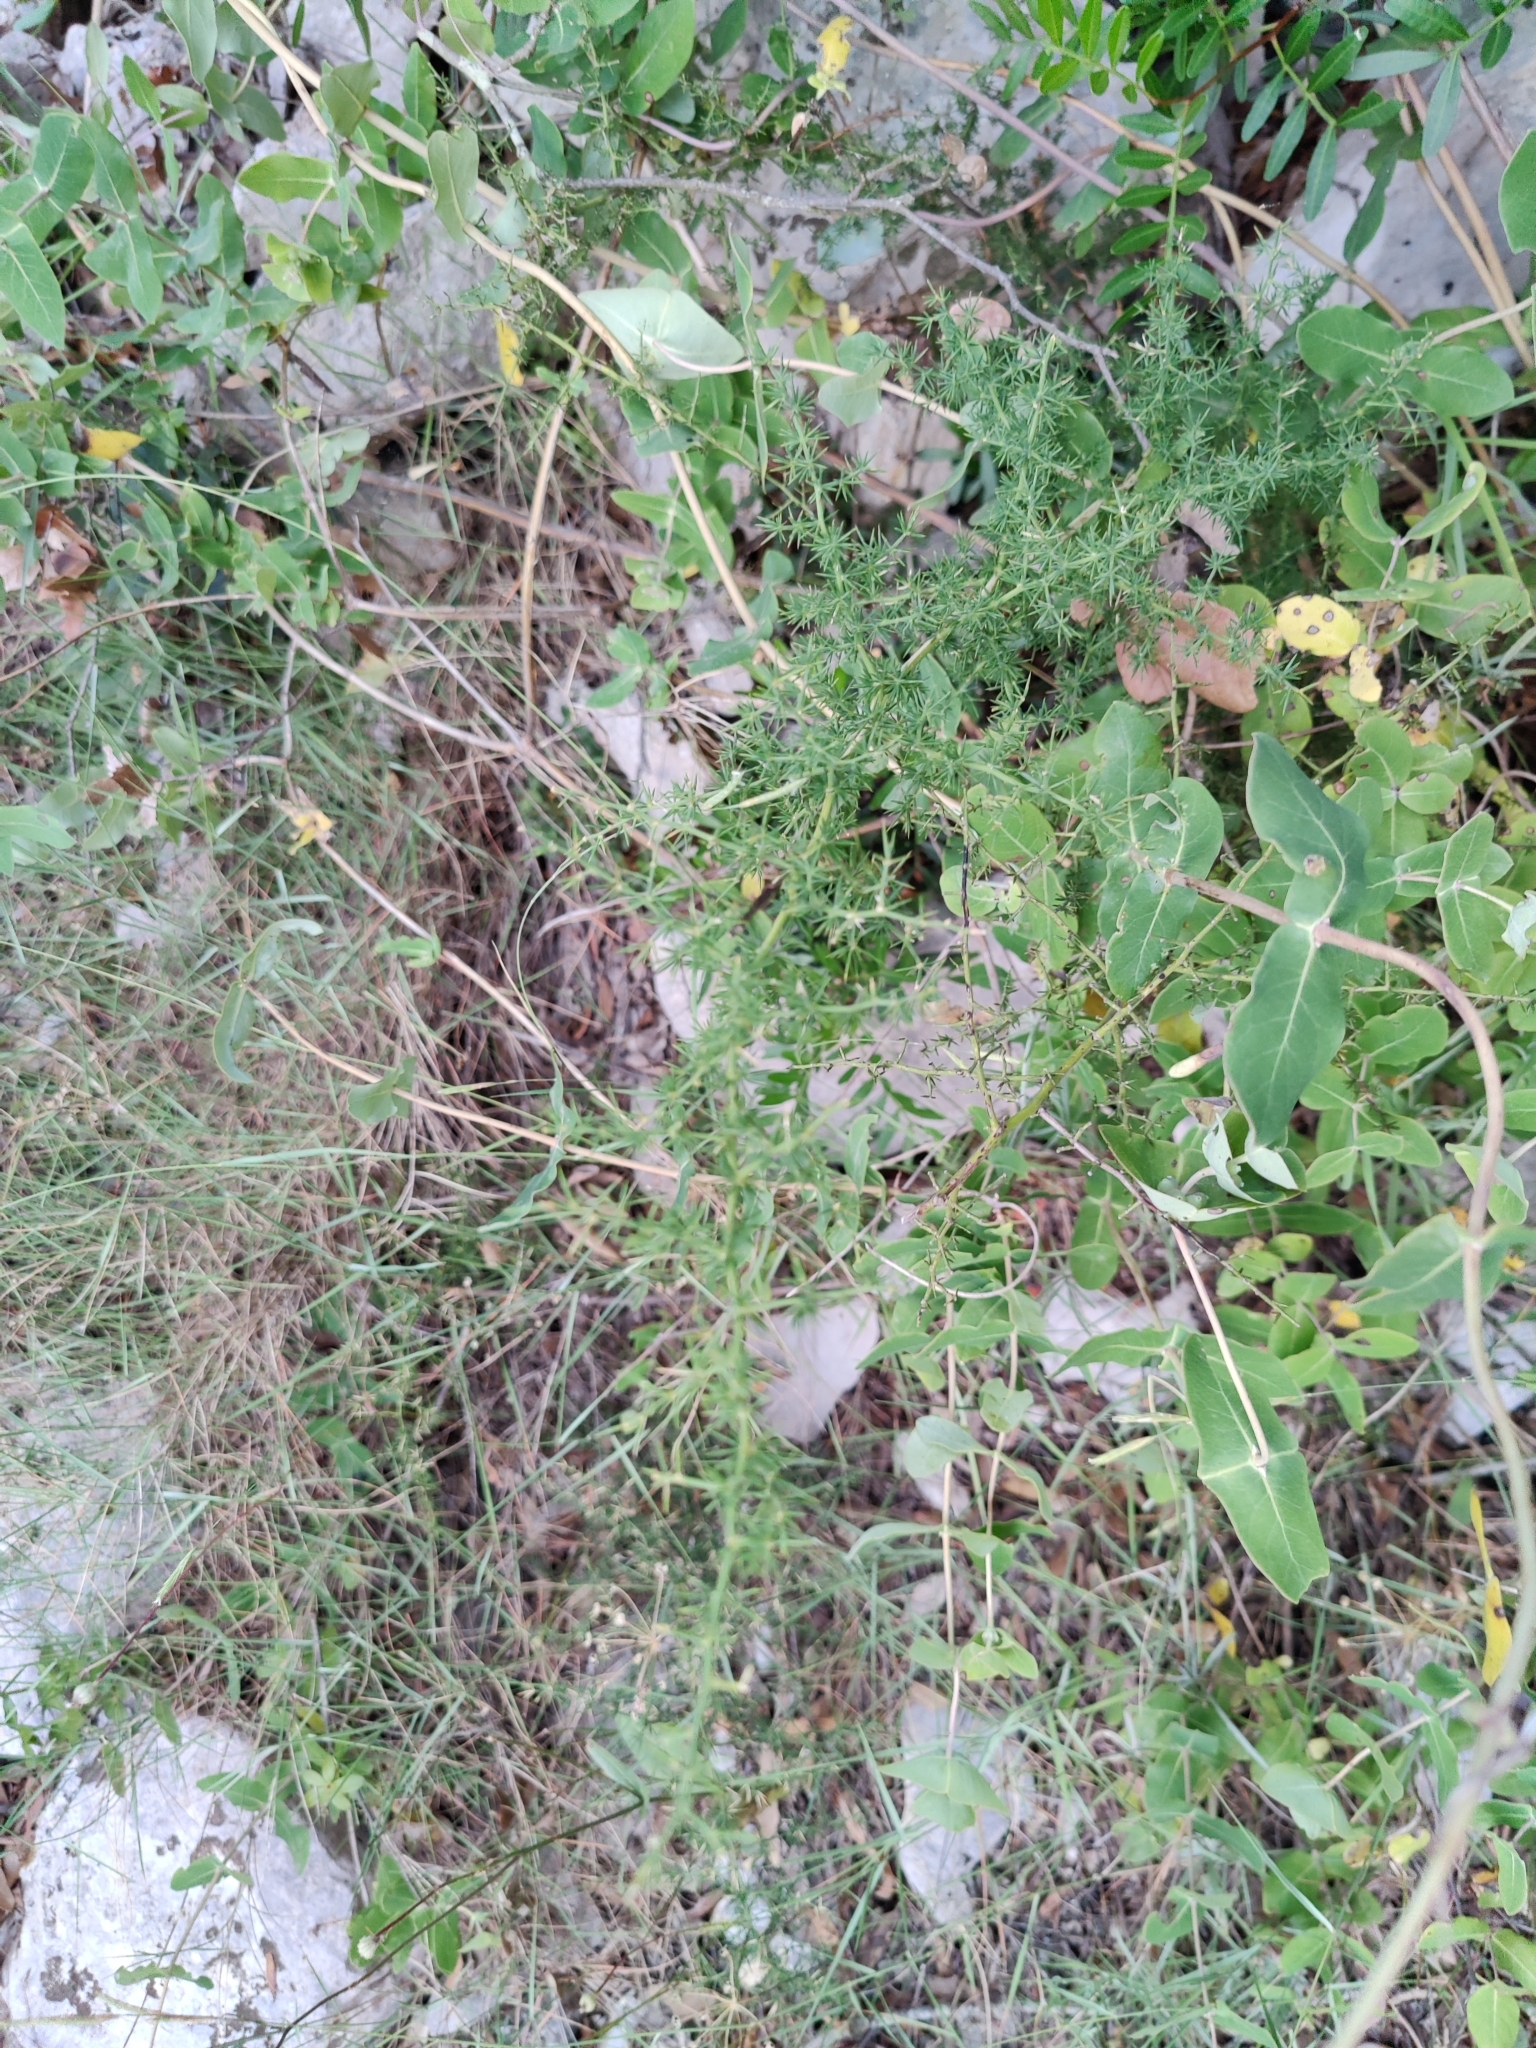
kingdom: Plantae
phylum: Tracheophyta
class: Liliopsida
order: Asparagales
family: Asparagaceae
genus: Asparagus
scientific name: Asparagus acutifolius
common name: Wild asparagus
